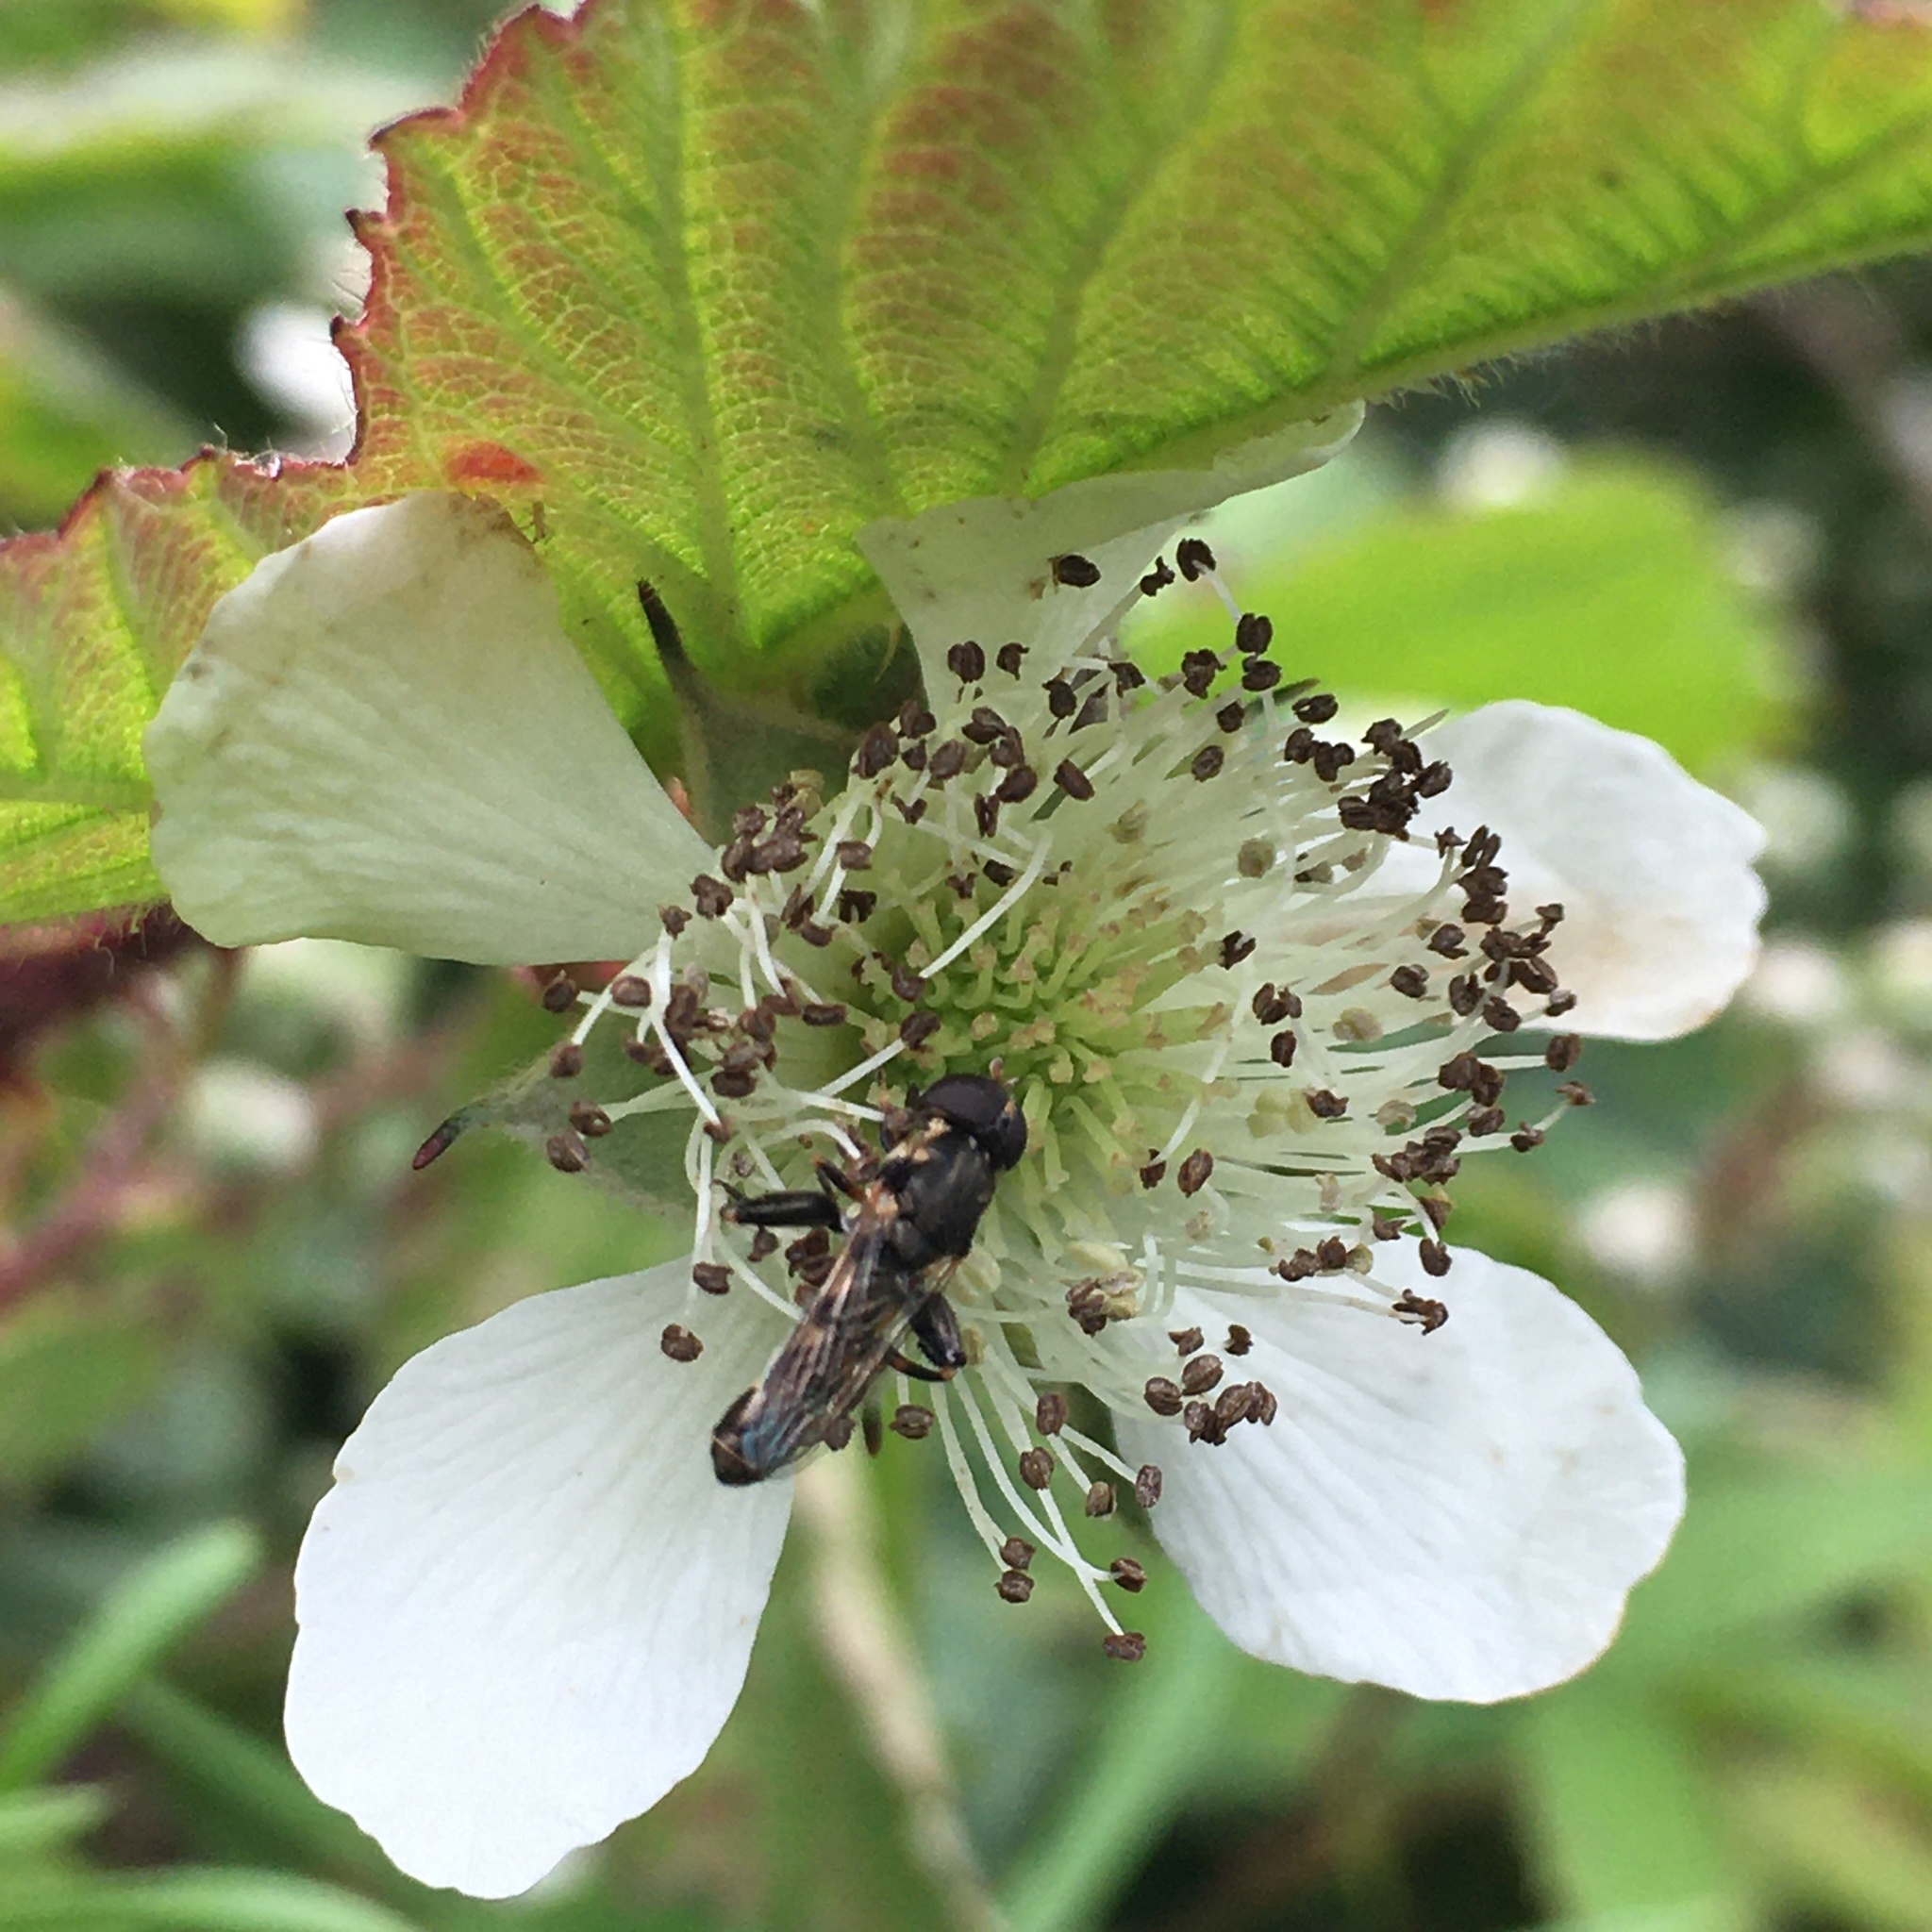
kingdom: Animalia
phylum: Arthropoda
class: Insecta
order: Diptera
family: Syrphidae
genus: Syritta
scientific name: Syritta pipiens
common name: Hover fly
